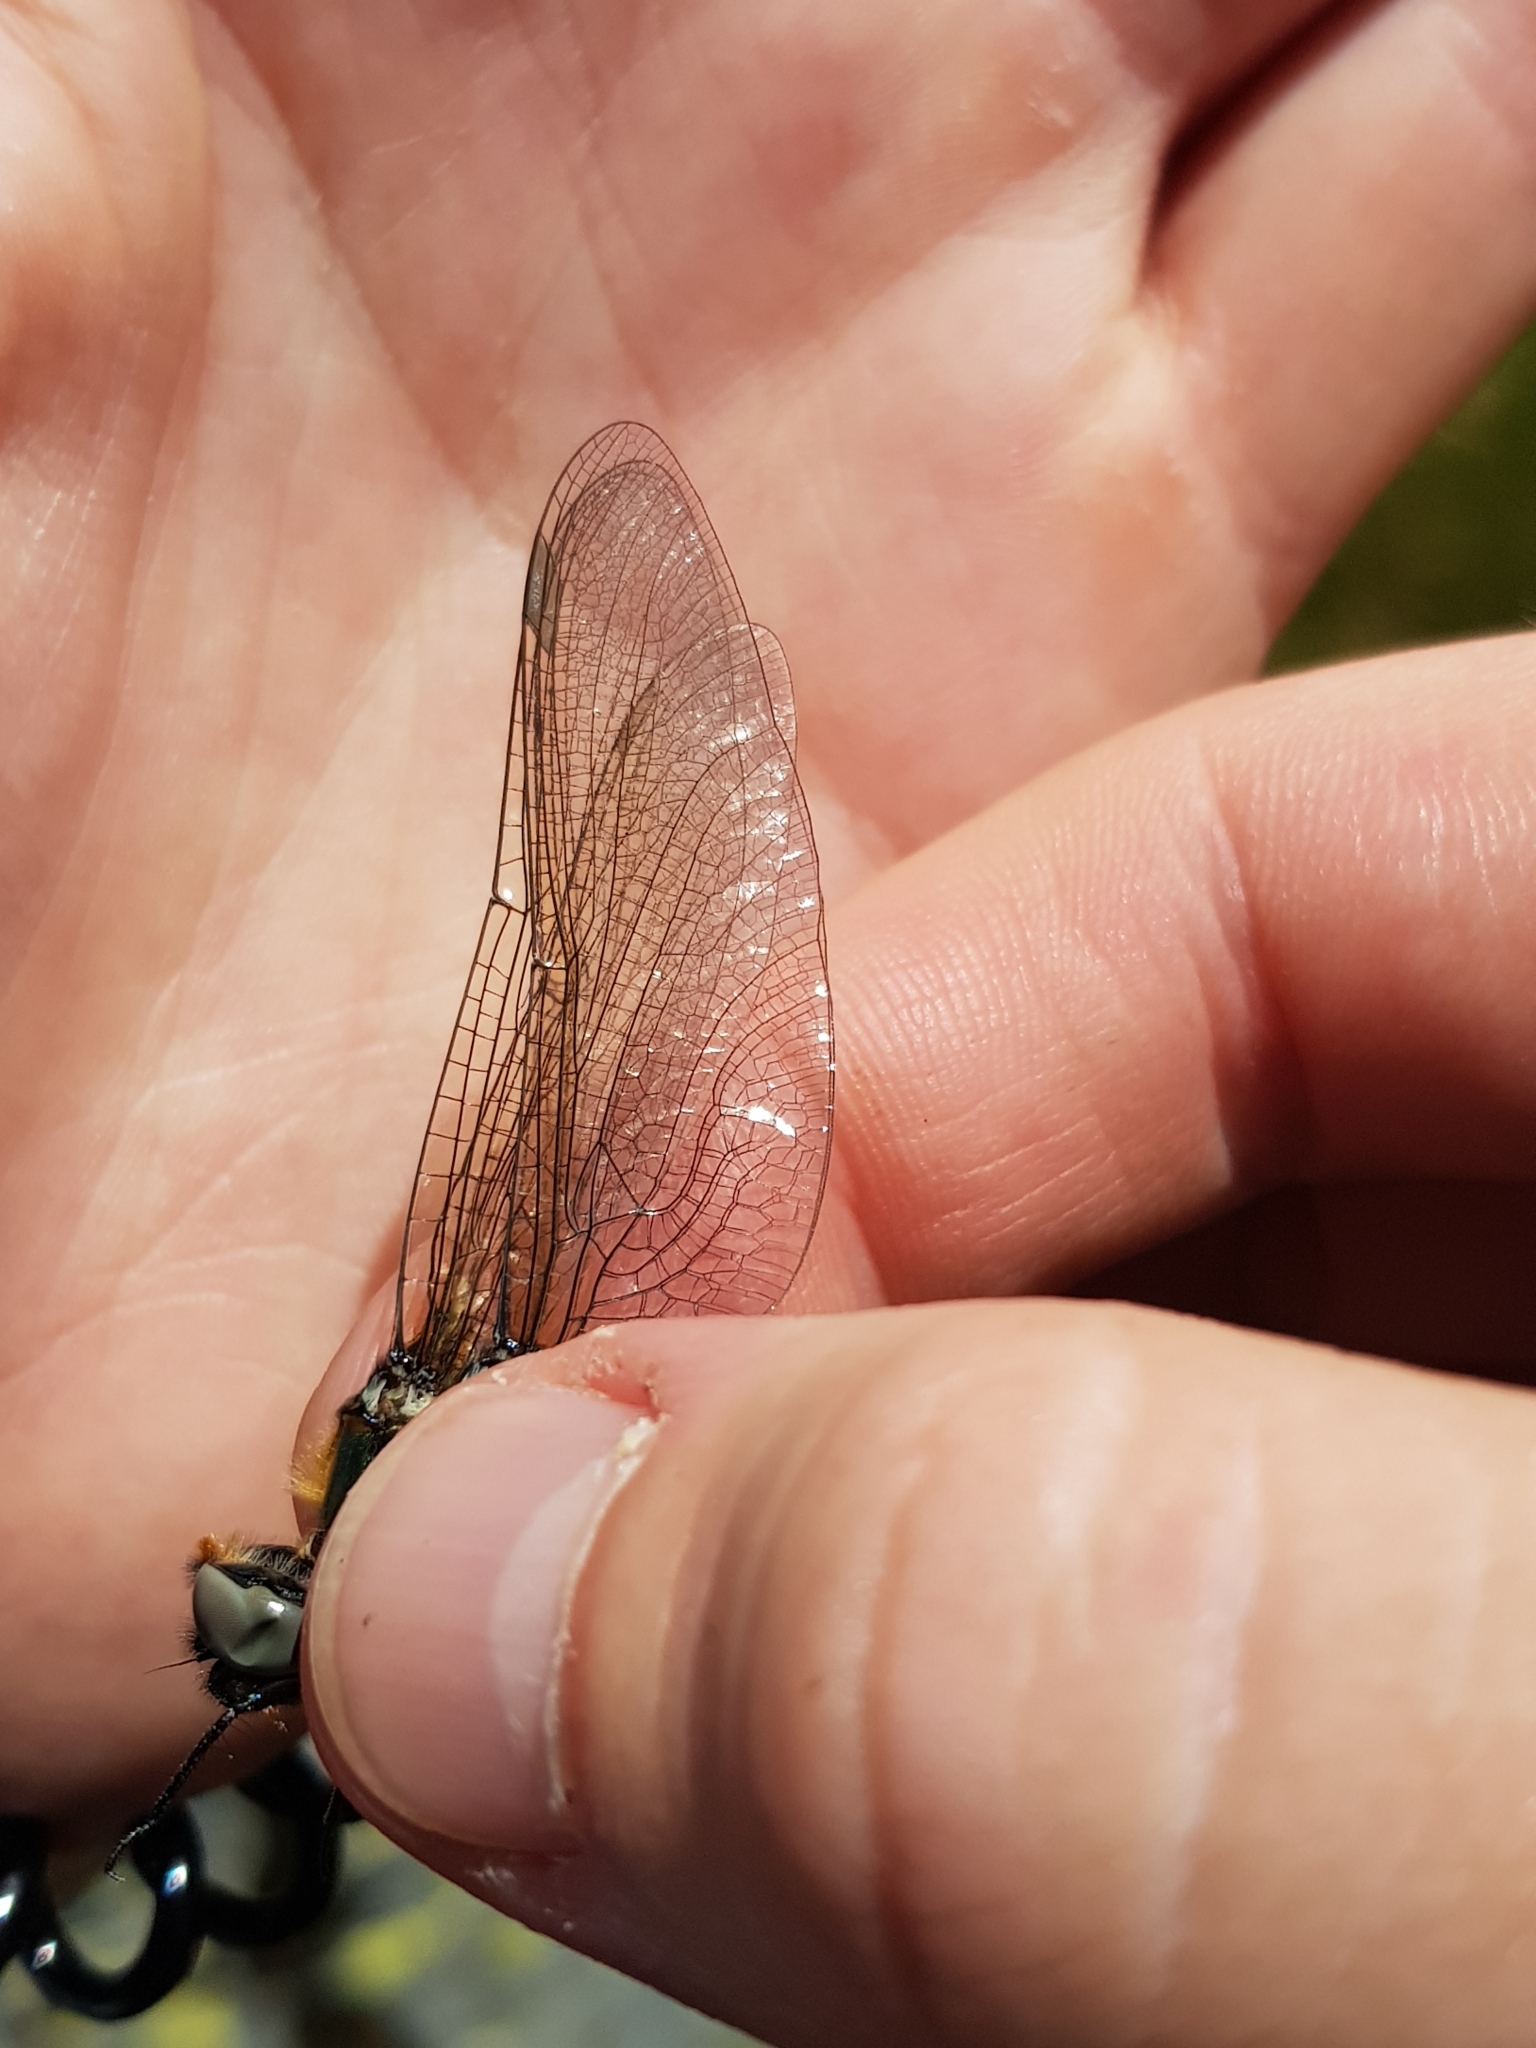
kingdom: Animalia
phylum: Arthropoda
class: Insecta
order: Odonata
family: Corduliidae
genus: Somatochlora
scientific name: Somatochlora alpestris
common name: Alpine emerald
